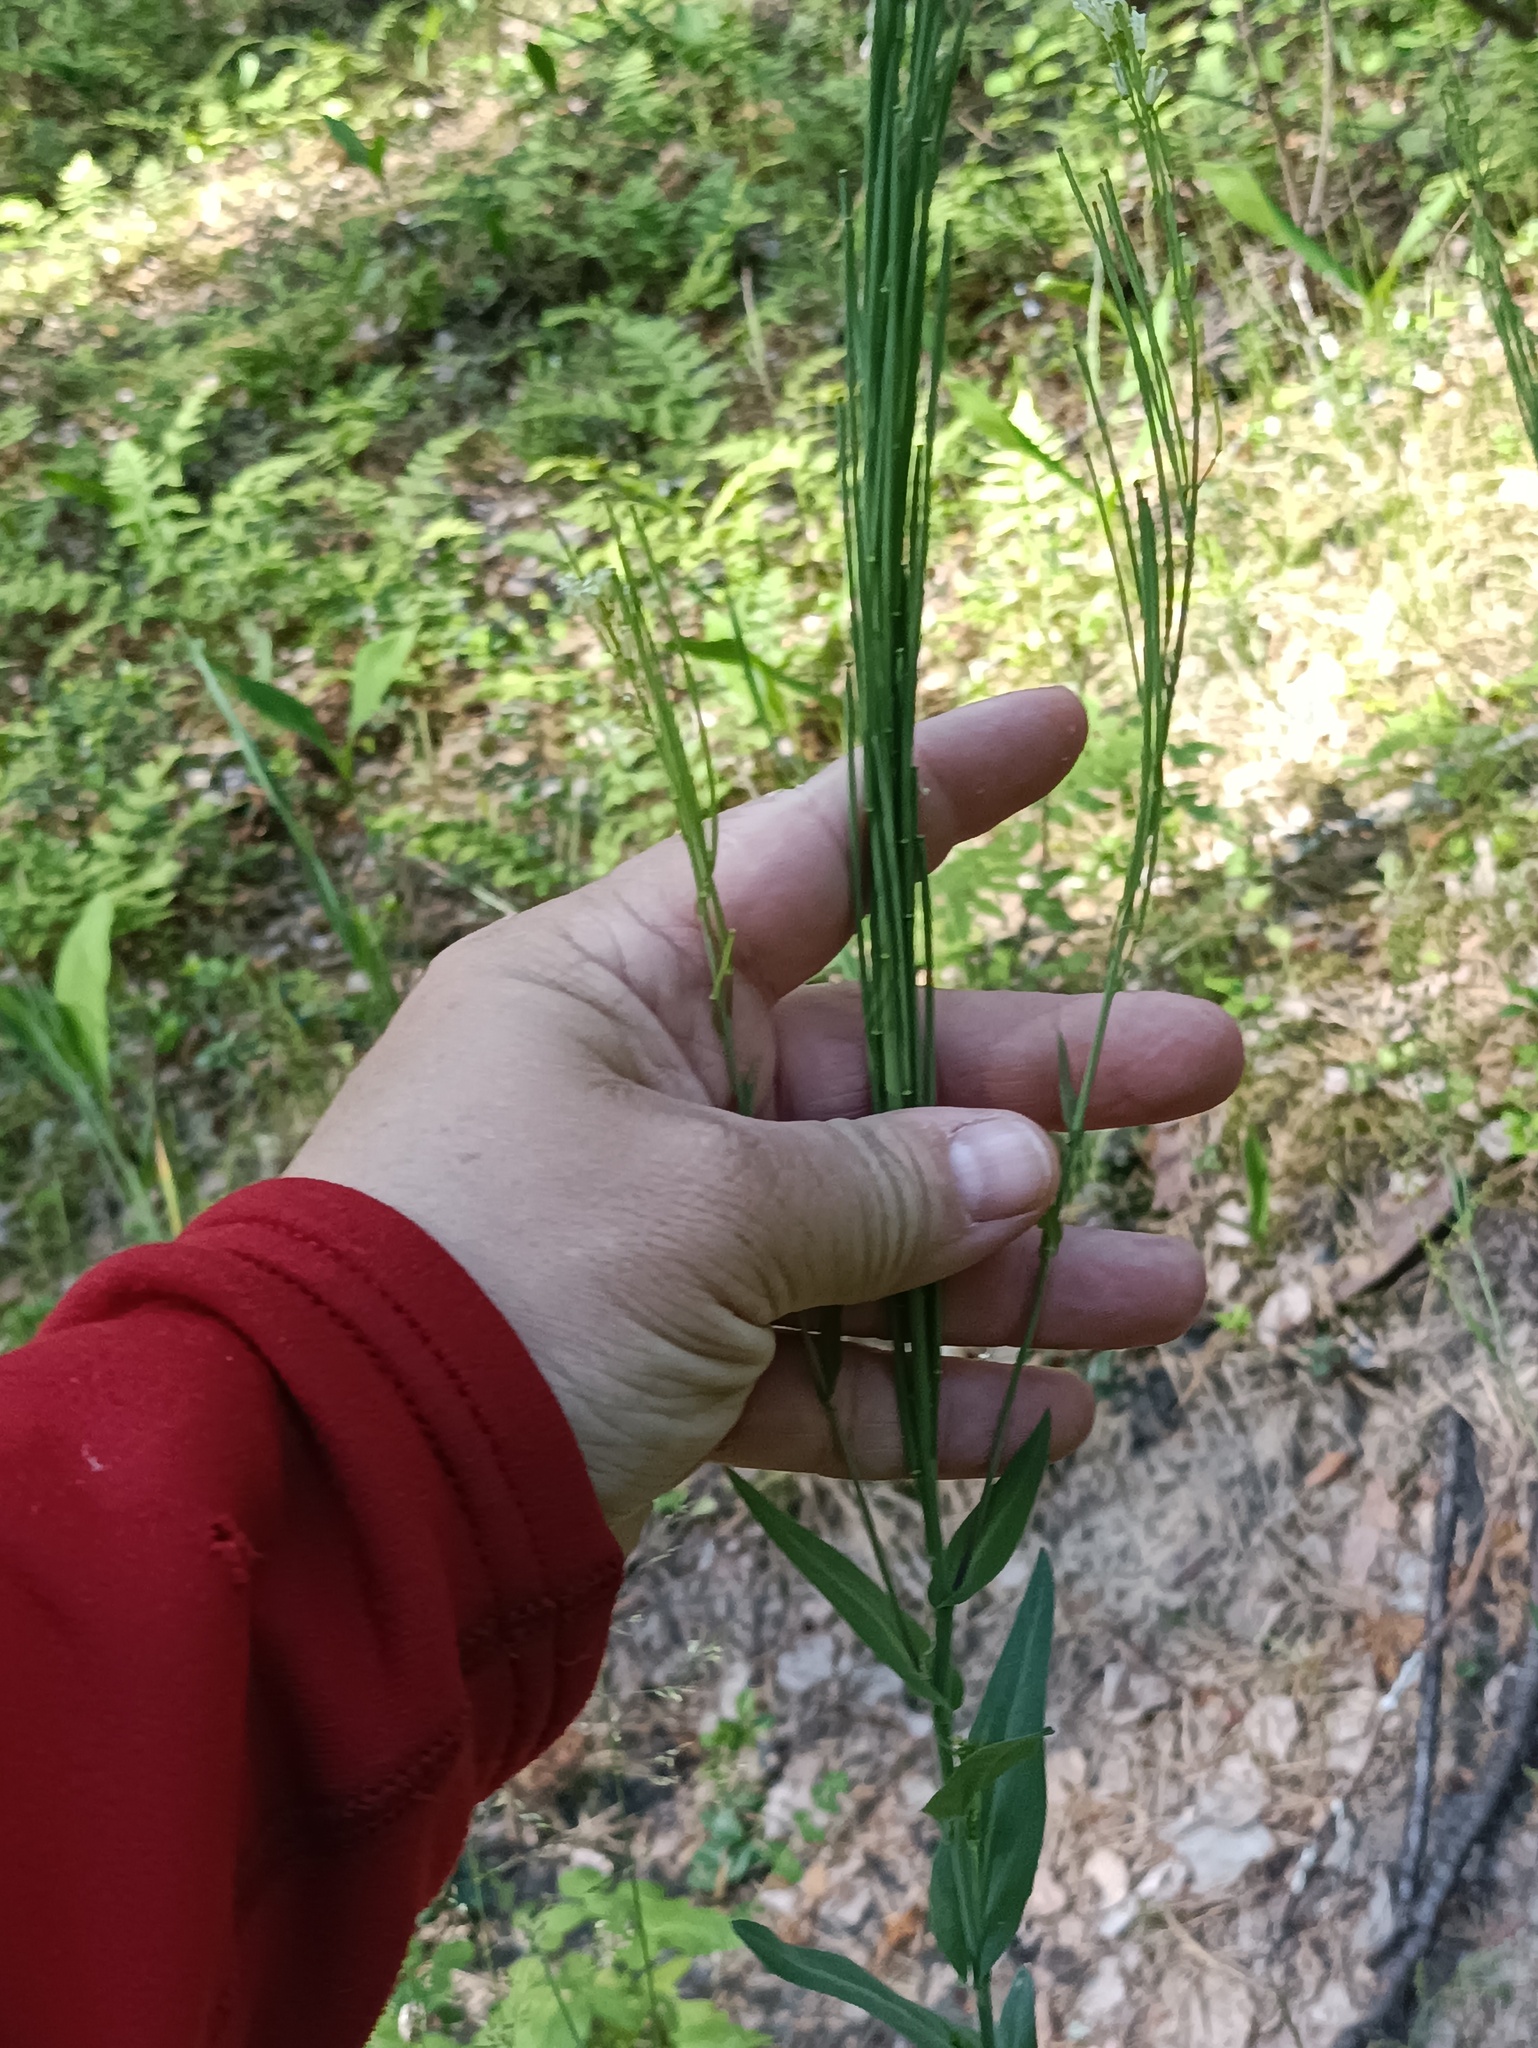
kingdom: Plantae
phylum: Tracheophyta
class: Magnoliopsida
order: Brassicales
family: Brassicaceae
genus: Turritis
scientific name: Turritis glabra
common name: Tower rockcress
